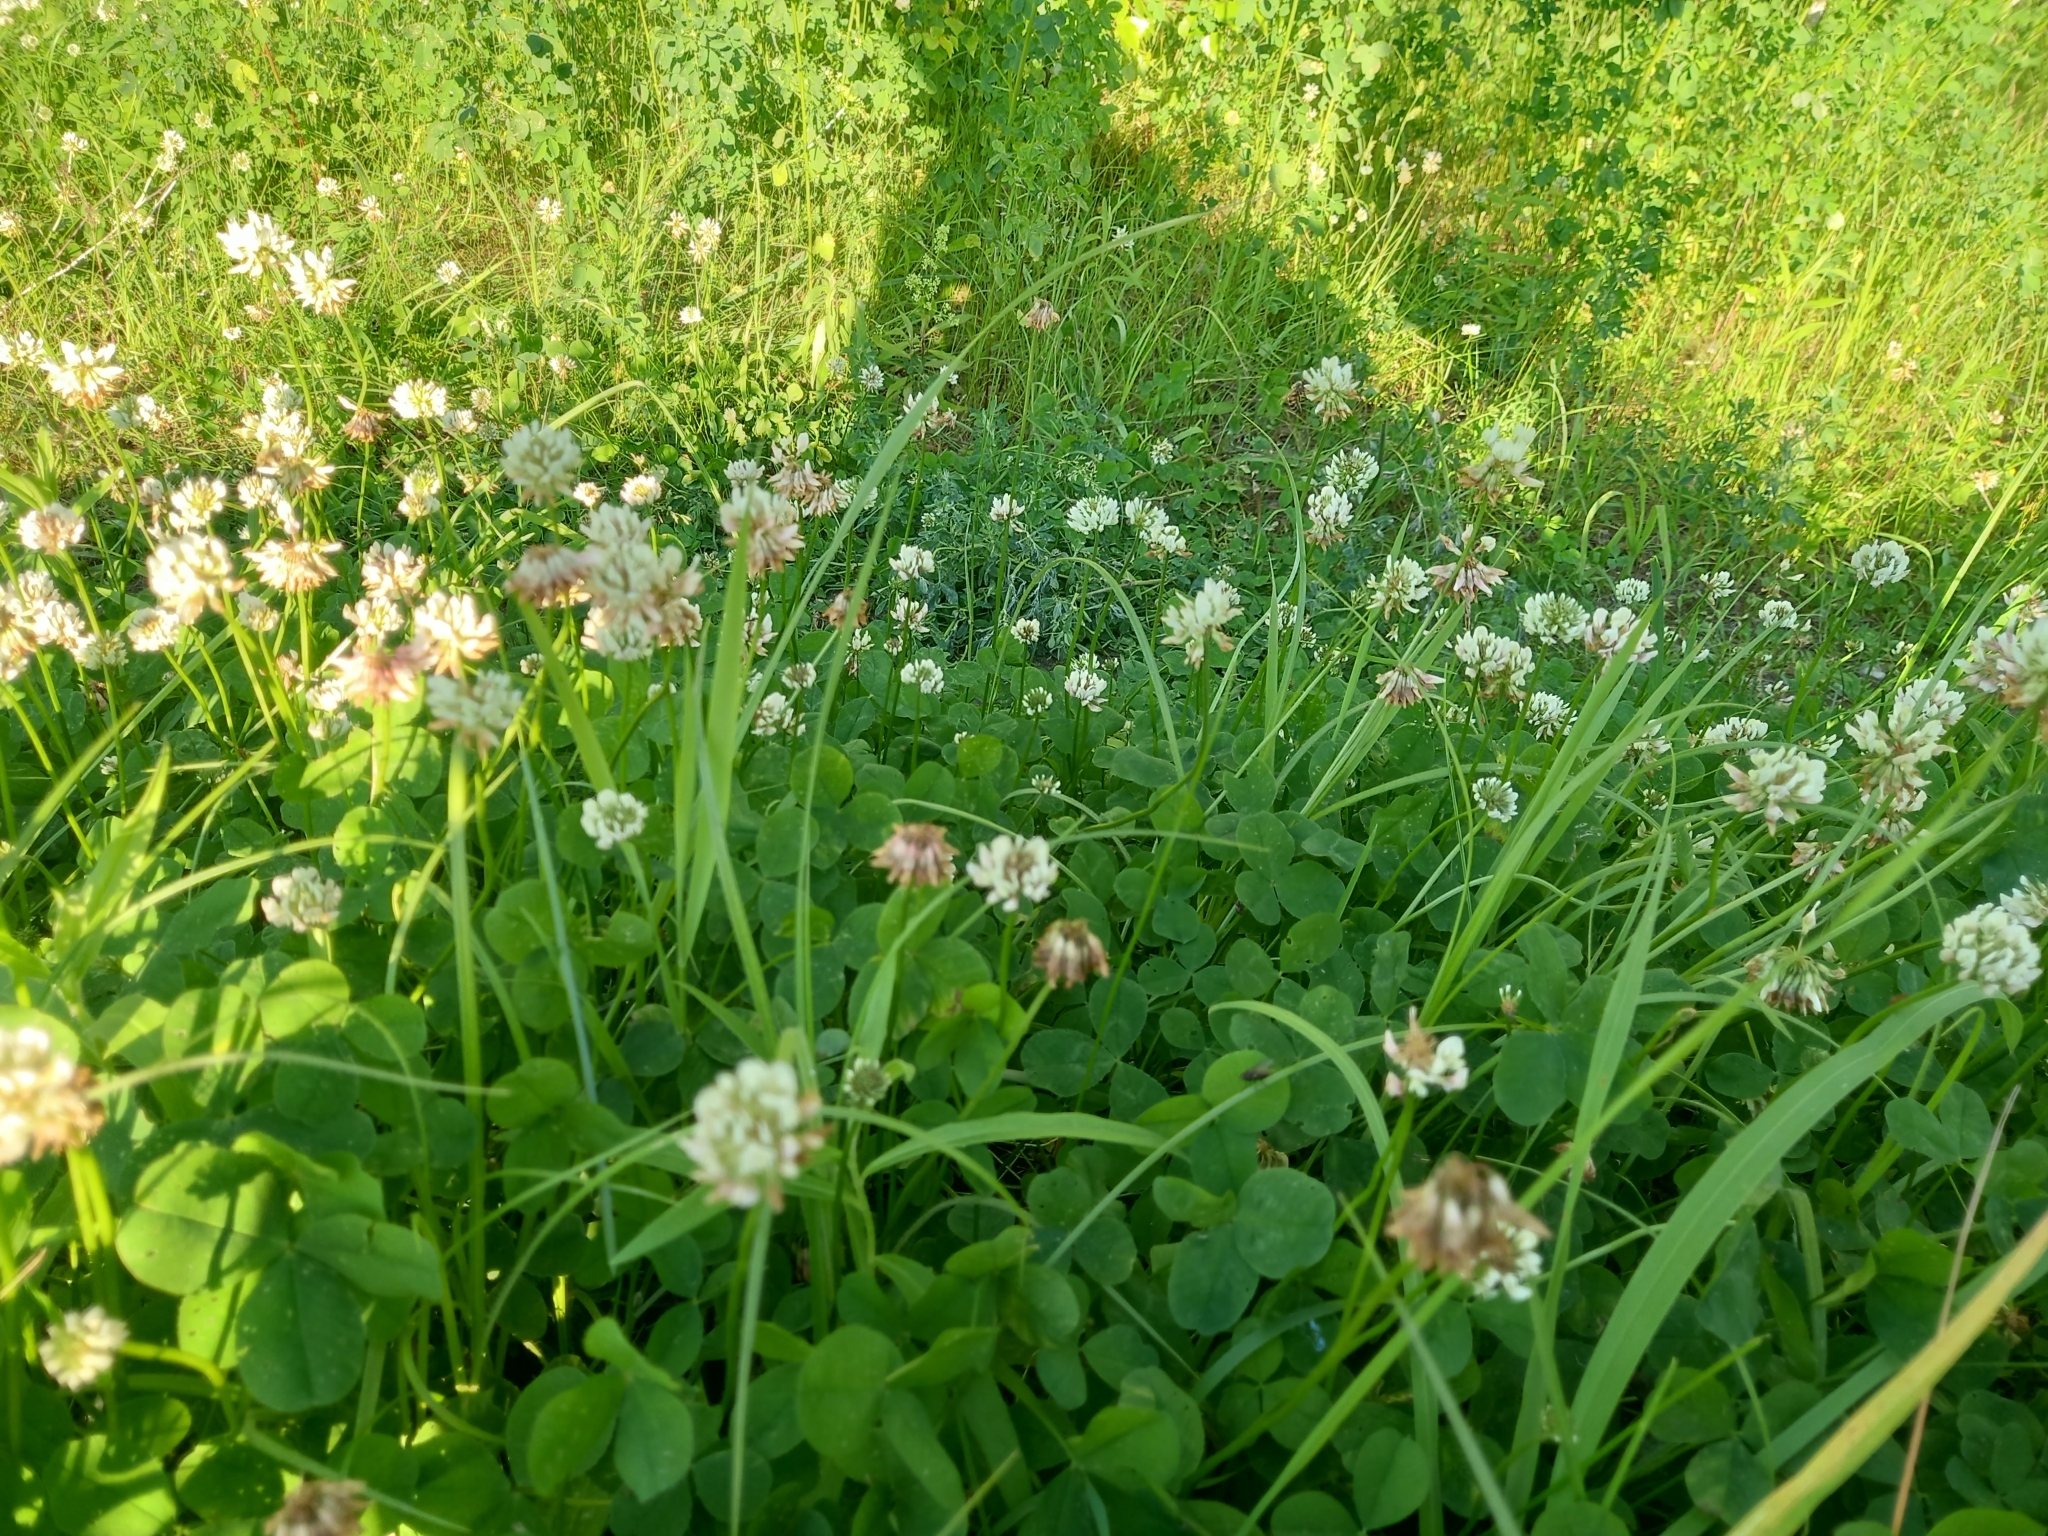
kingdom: Plantae
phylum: Tracheophyta
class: Magnoliopsida
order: Fabales
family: Fabaceae
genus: Trifolium
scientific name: Trifolium repens
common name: White clover
